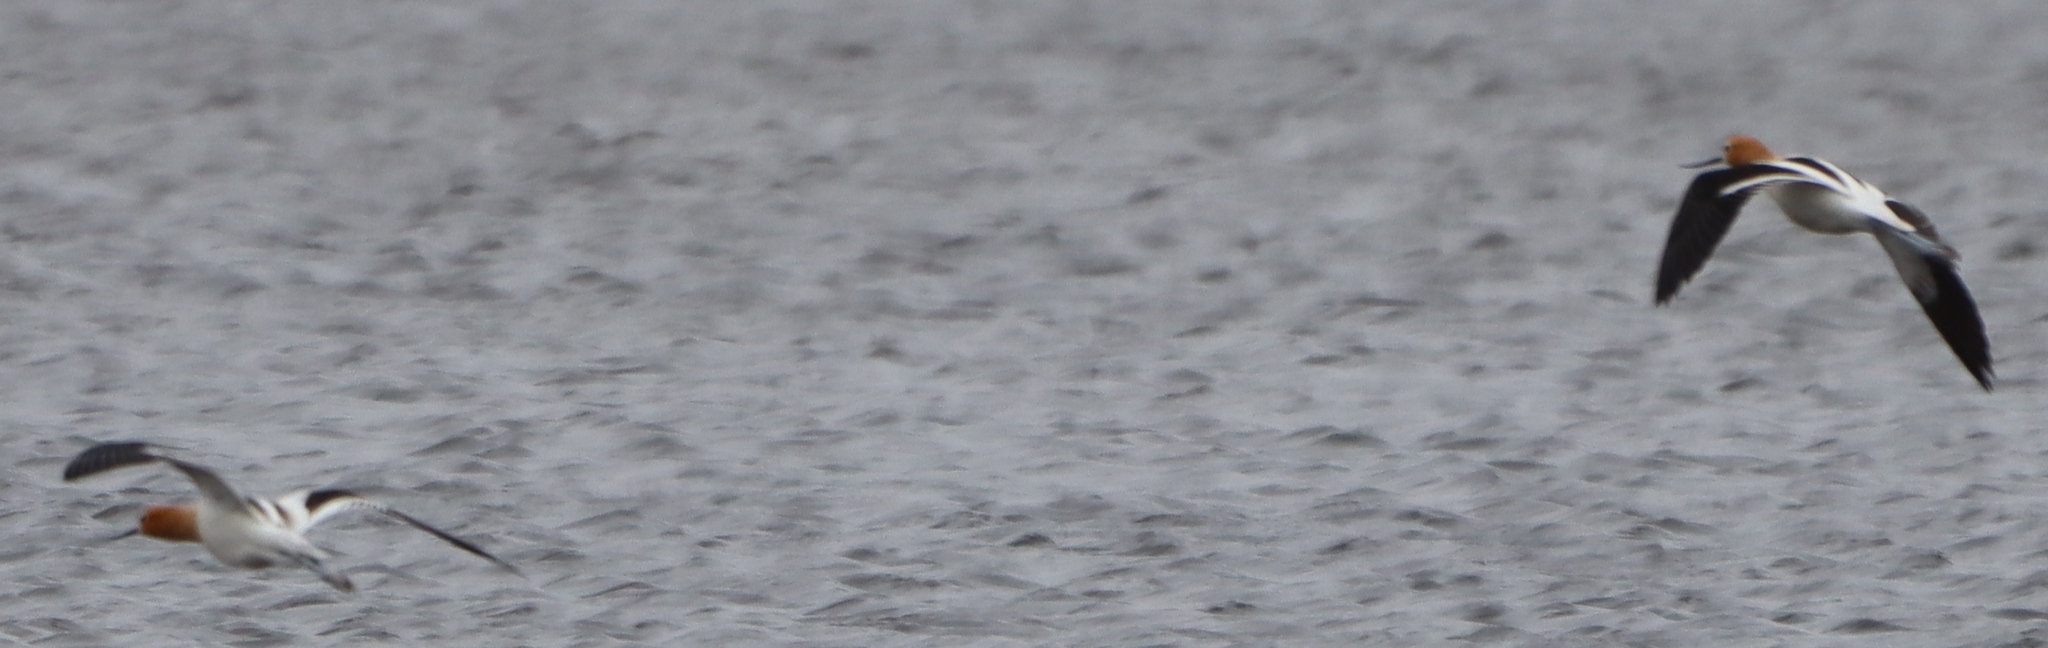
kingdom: Animalia
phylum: Chordata
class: Aves
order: Charadriiformes
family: Recurvirostridae
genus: Recurvirostra
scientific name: Recurvirostra americana
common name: American avocet
